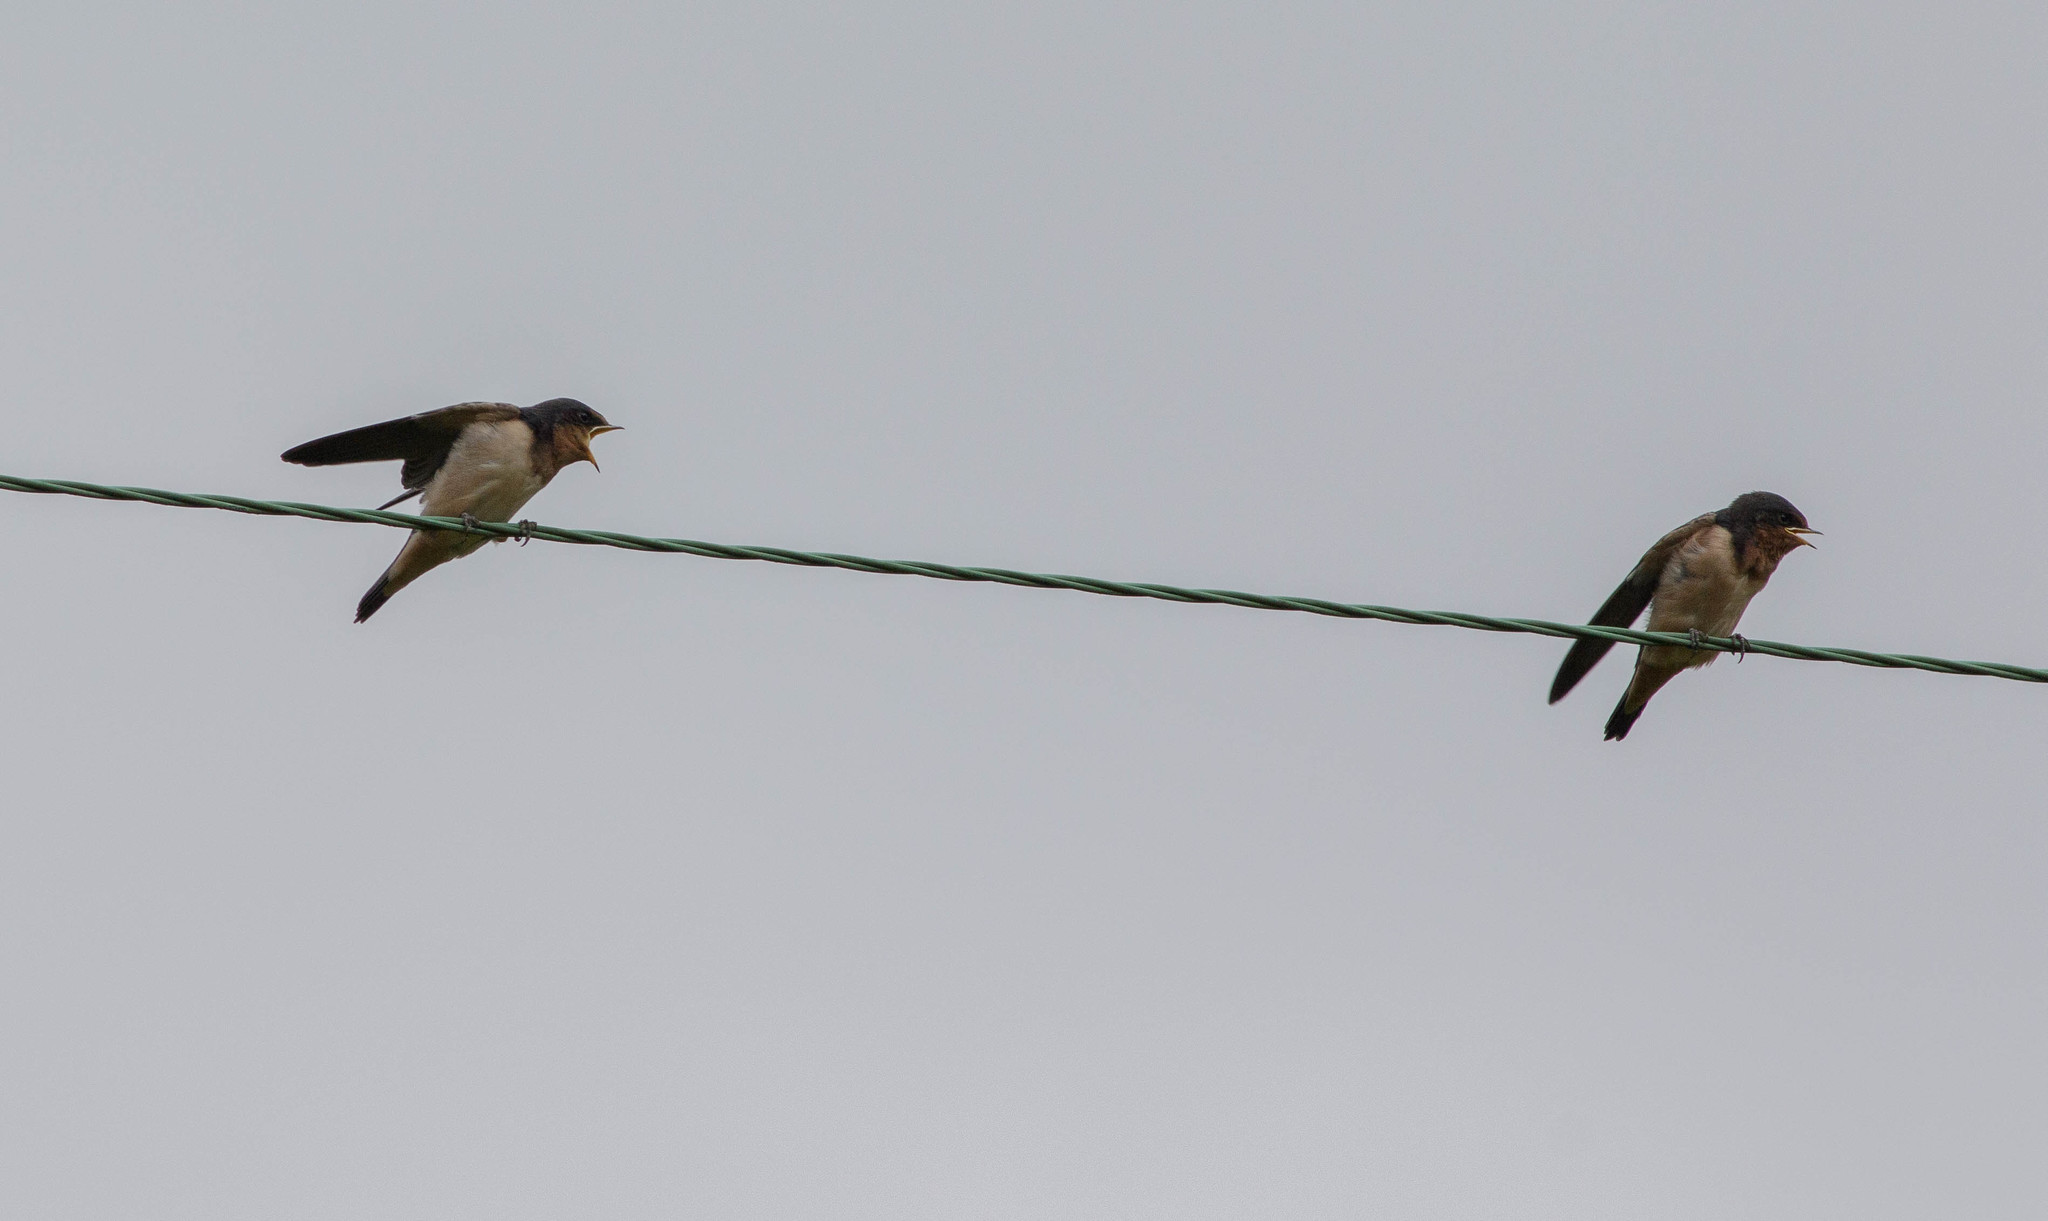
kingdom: Animalia
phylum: Chordata
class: Aves
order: Passeriformes
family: Hirundinidae
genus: Hirundo
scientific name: Hirundo rustica
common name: Barn swallow
